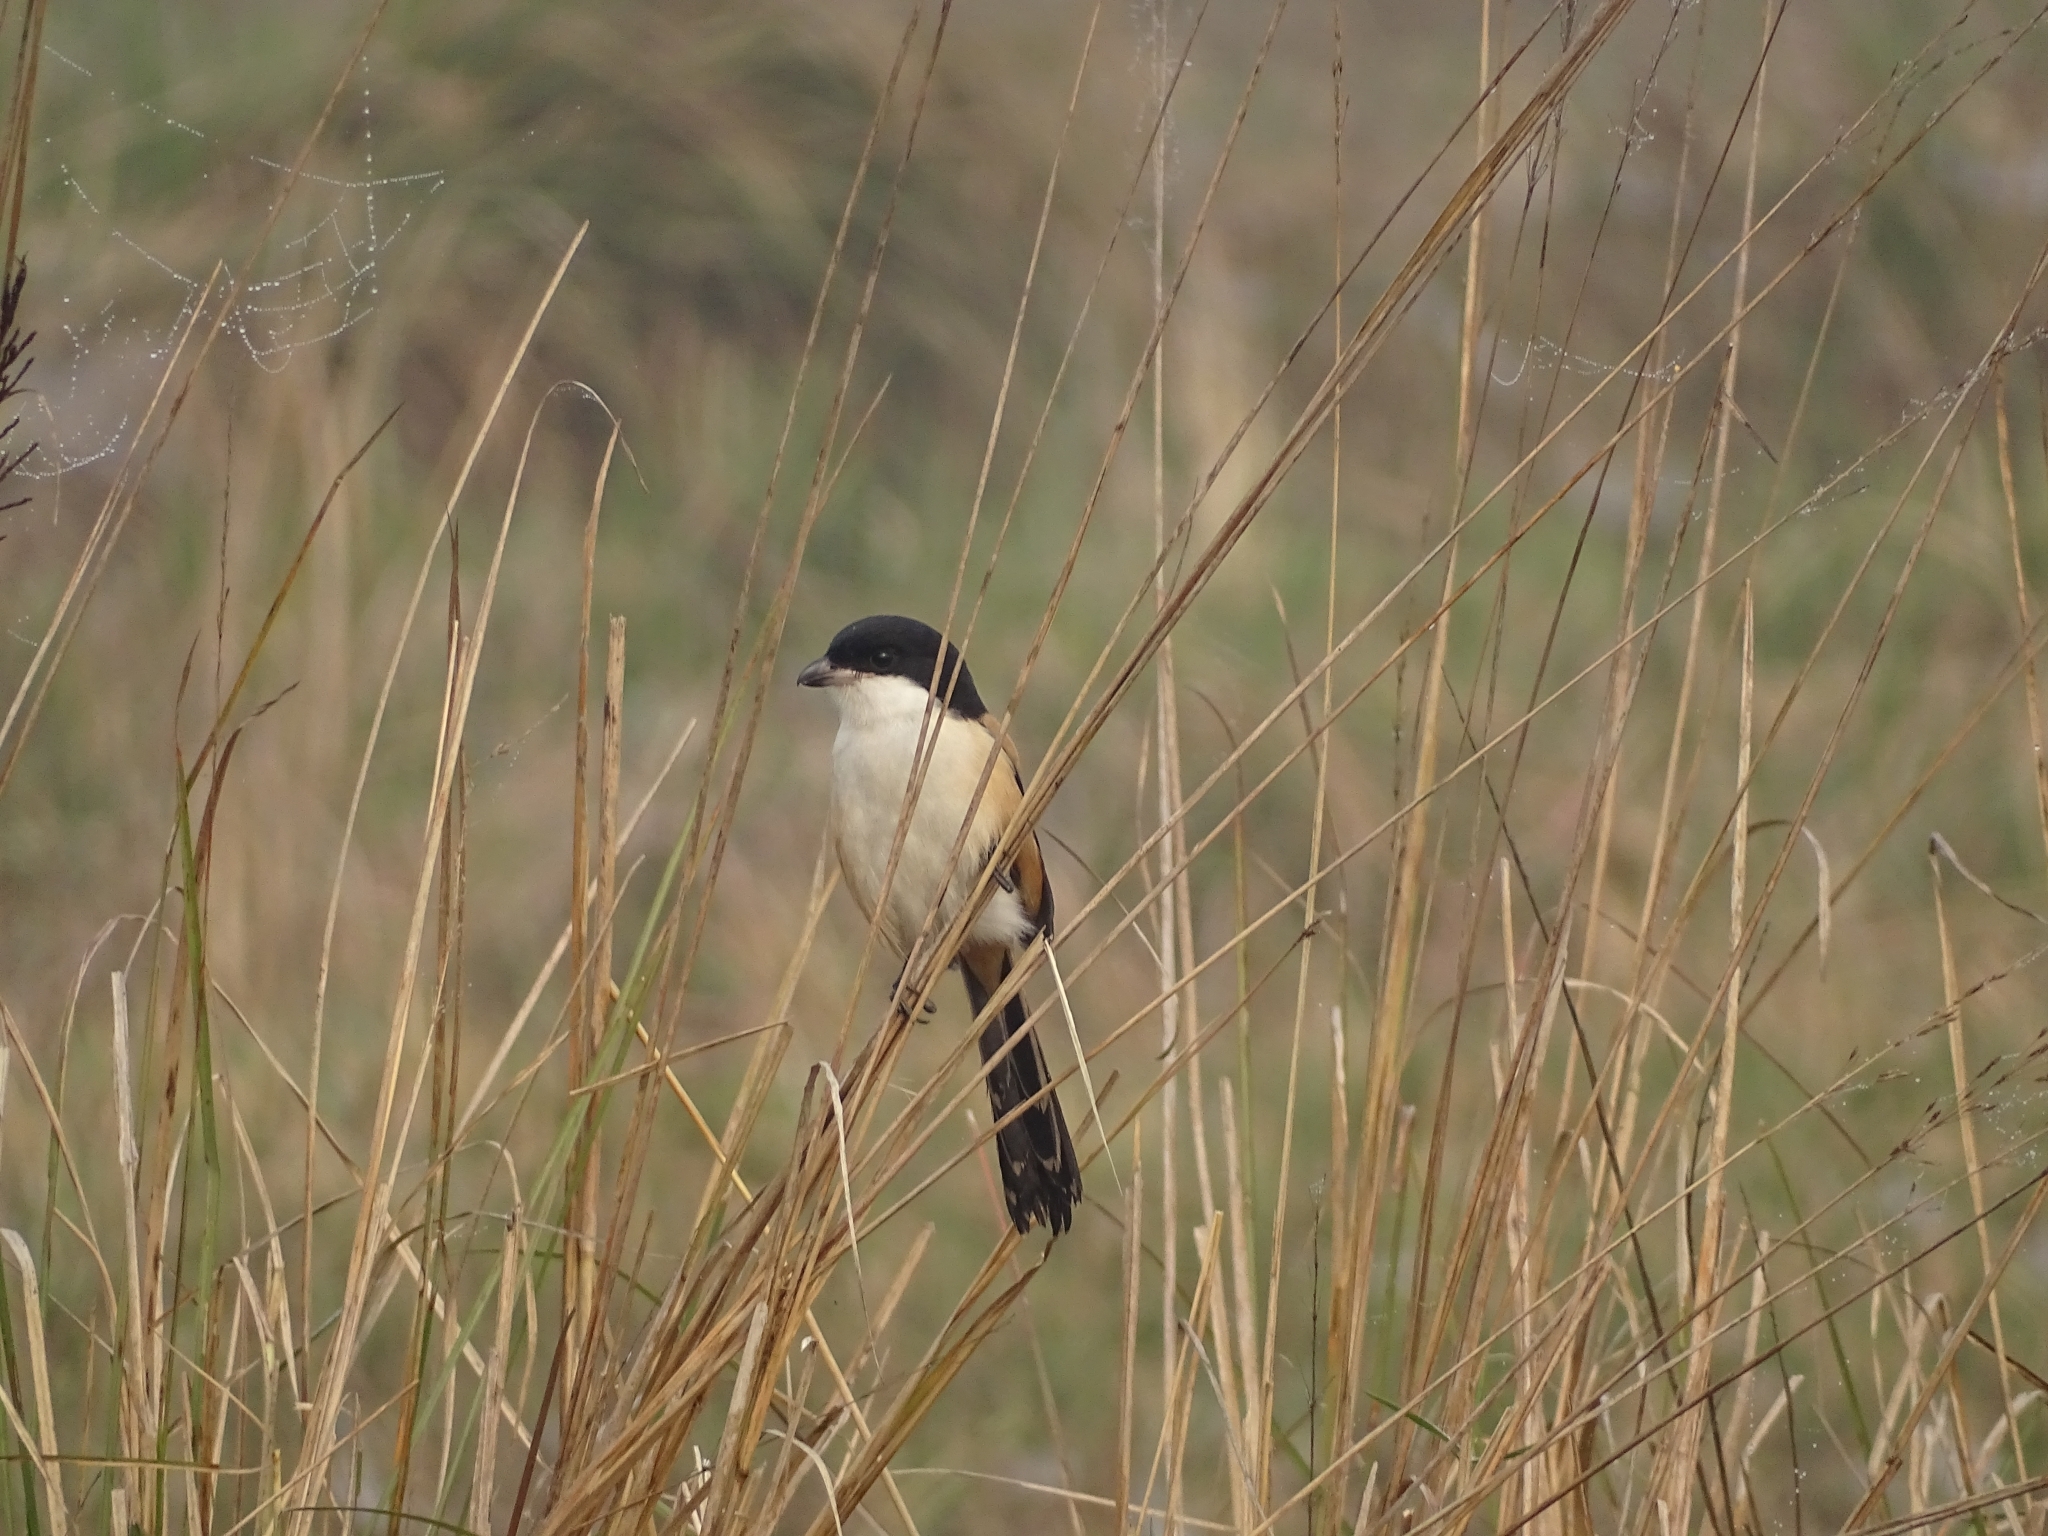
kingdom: Animalia
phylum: Chordata
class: Aves
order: Passeriformes
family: Laniidae
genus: Lanius
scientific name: Lanius schach
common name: Long-tailed shrike
